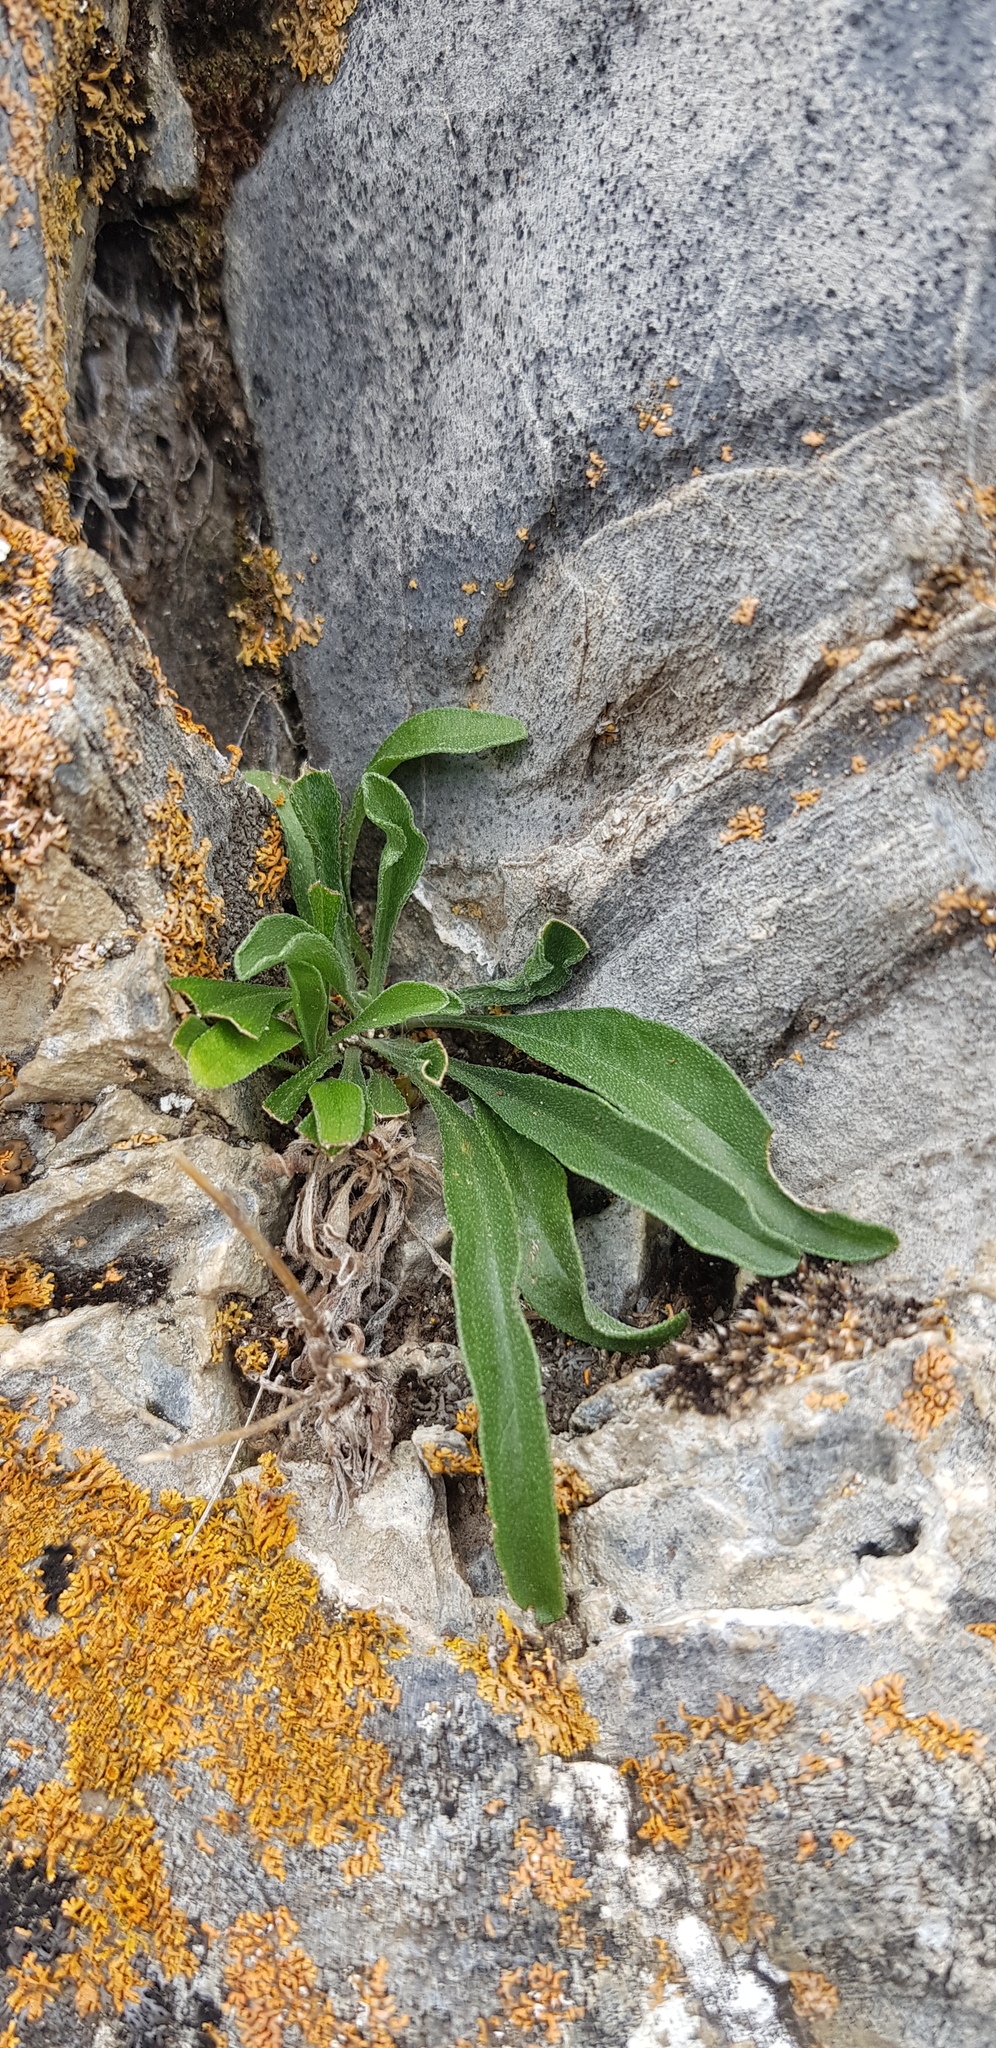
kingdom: Plantae
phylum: Tracheophyta
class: Magnoliopsida
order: Asterales
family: Asteraceae
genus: Aster
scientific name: Aster alpinus
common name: Alpine aster
